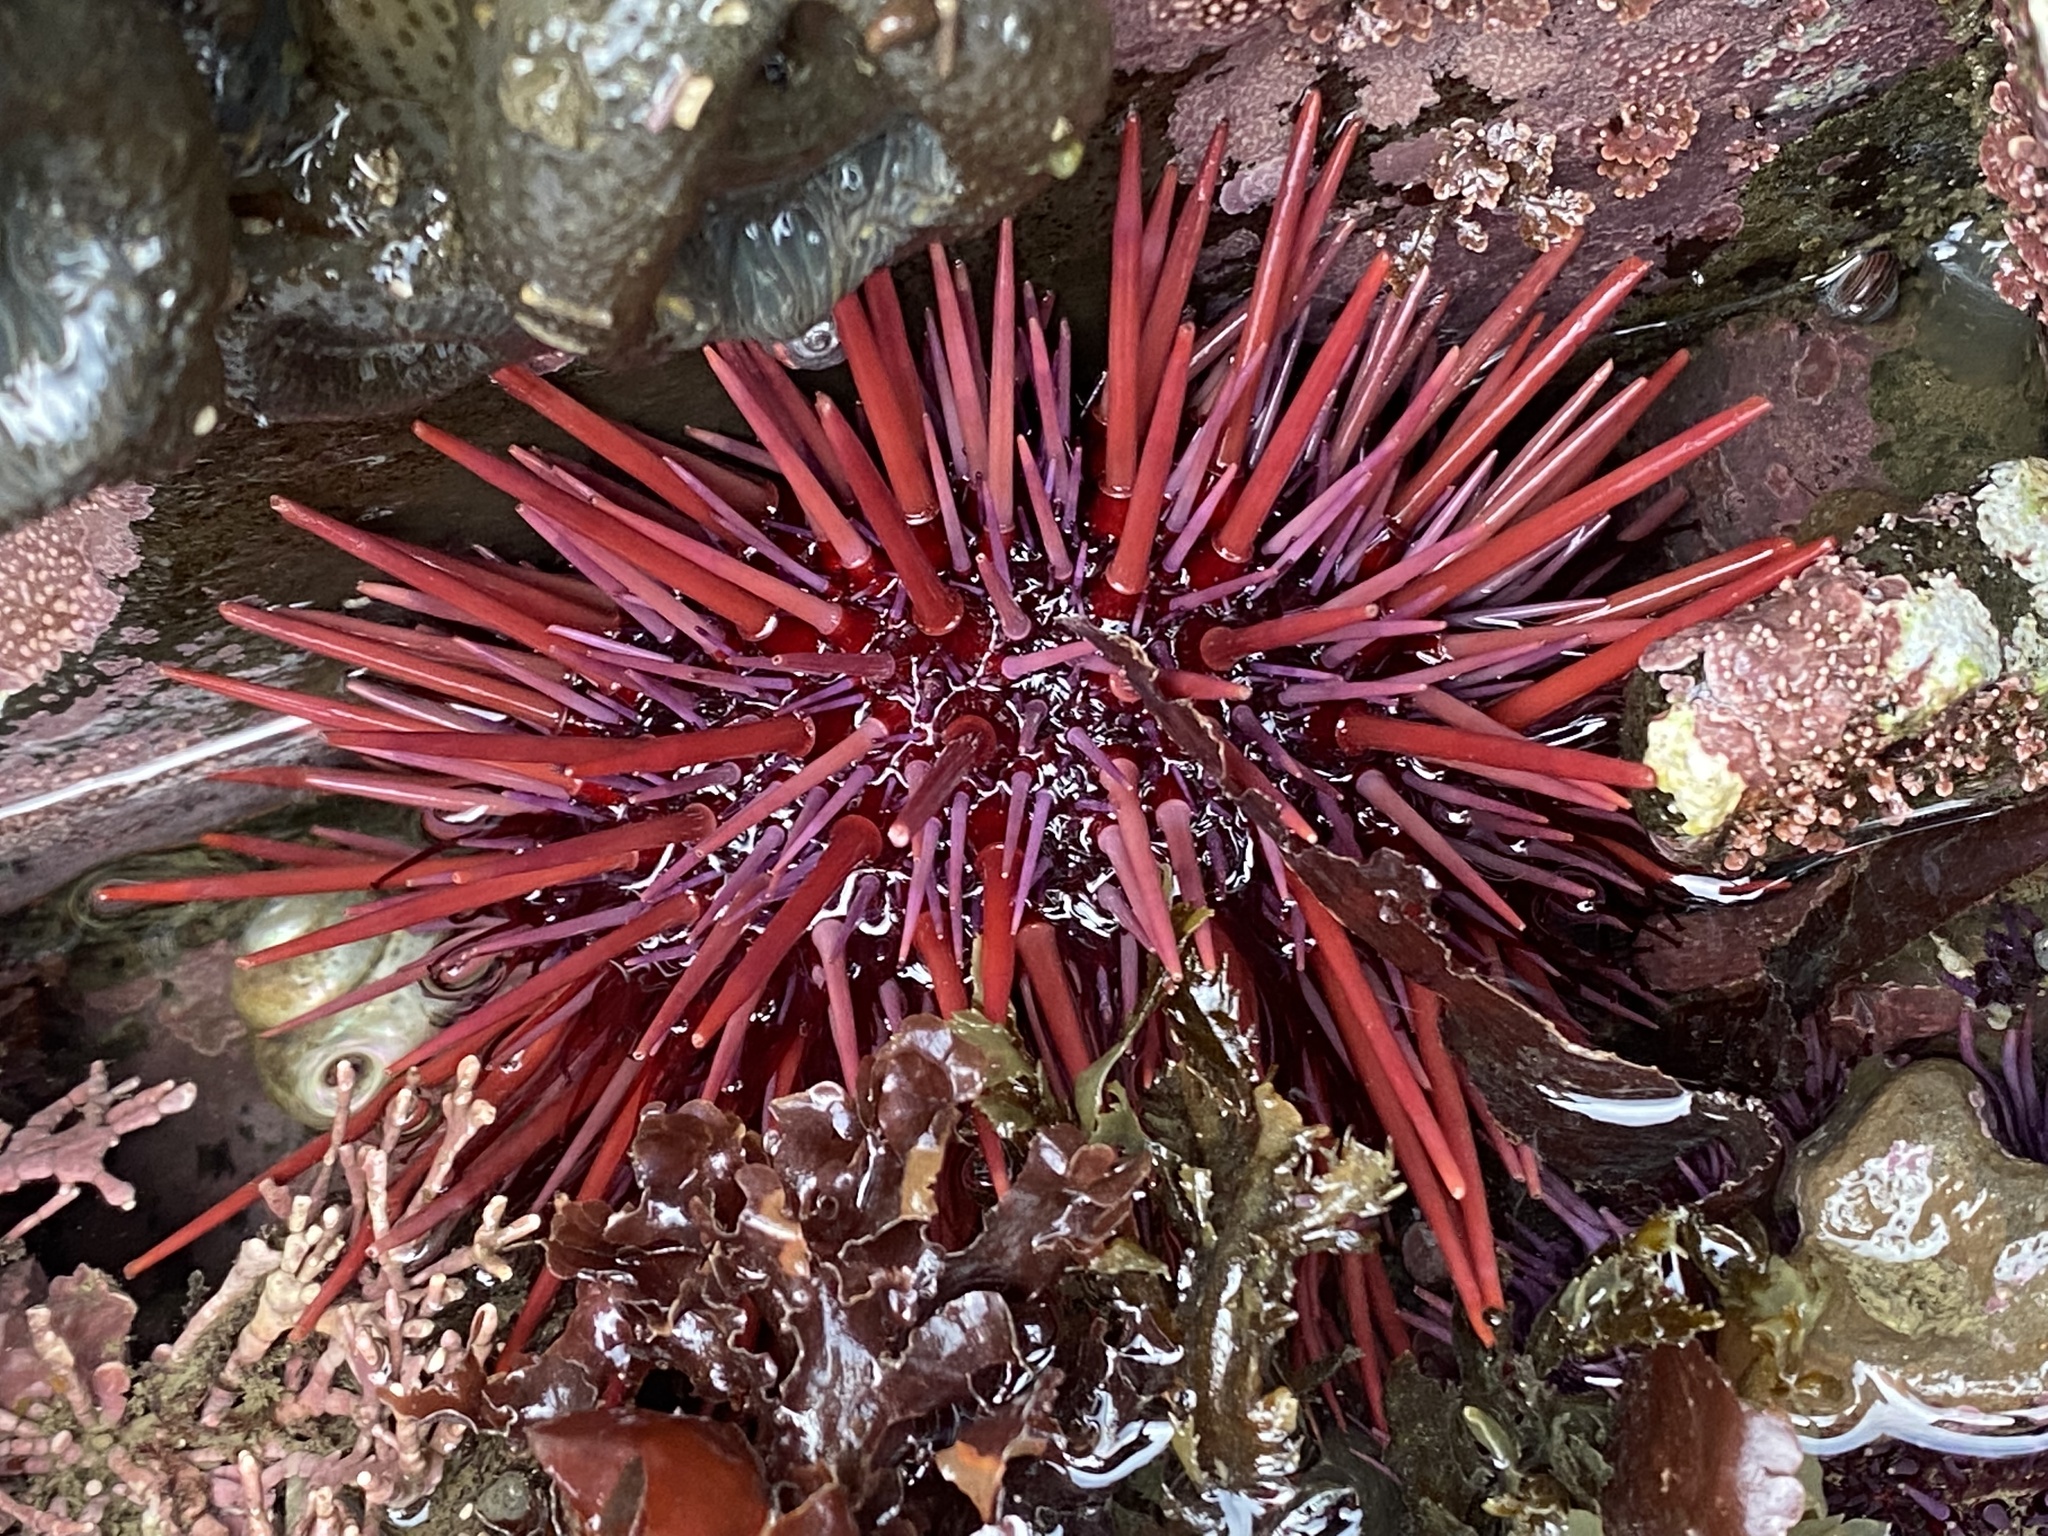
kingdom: Animalia
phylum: Echinodermata
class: Echinoidea
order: Camarodonta
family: Strongylocentrotidae
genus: Mesocentrotus
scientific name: Mesocentrotus franciscanus
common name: Red sea urchin
